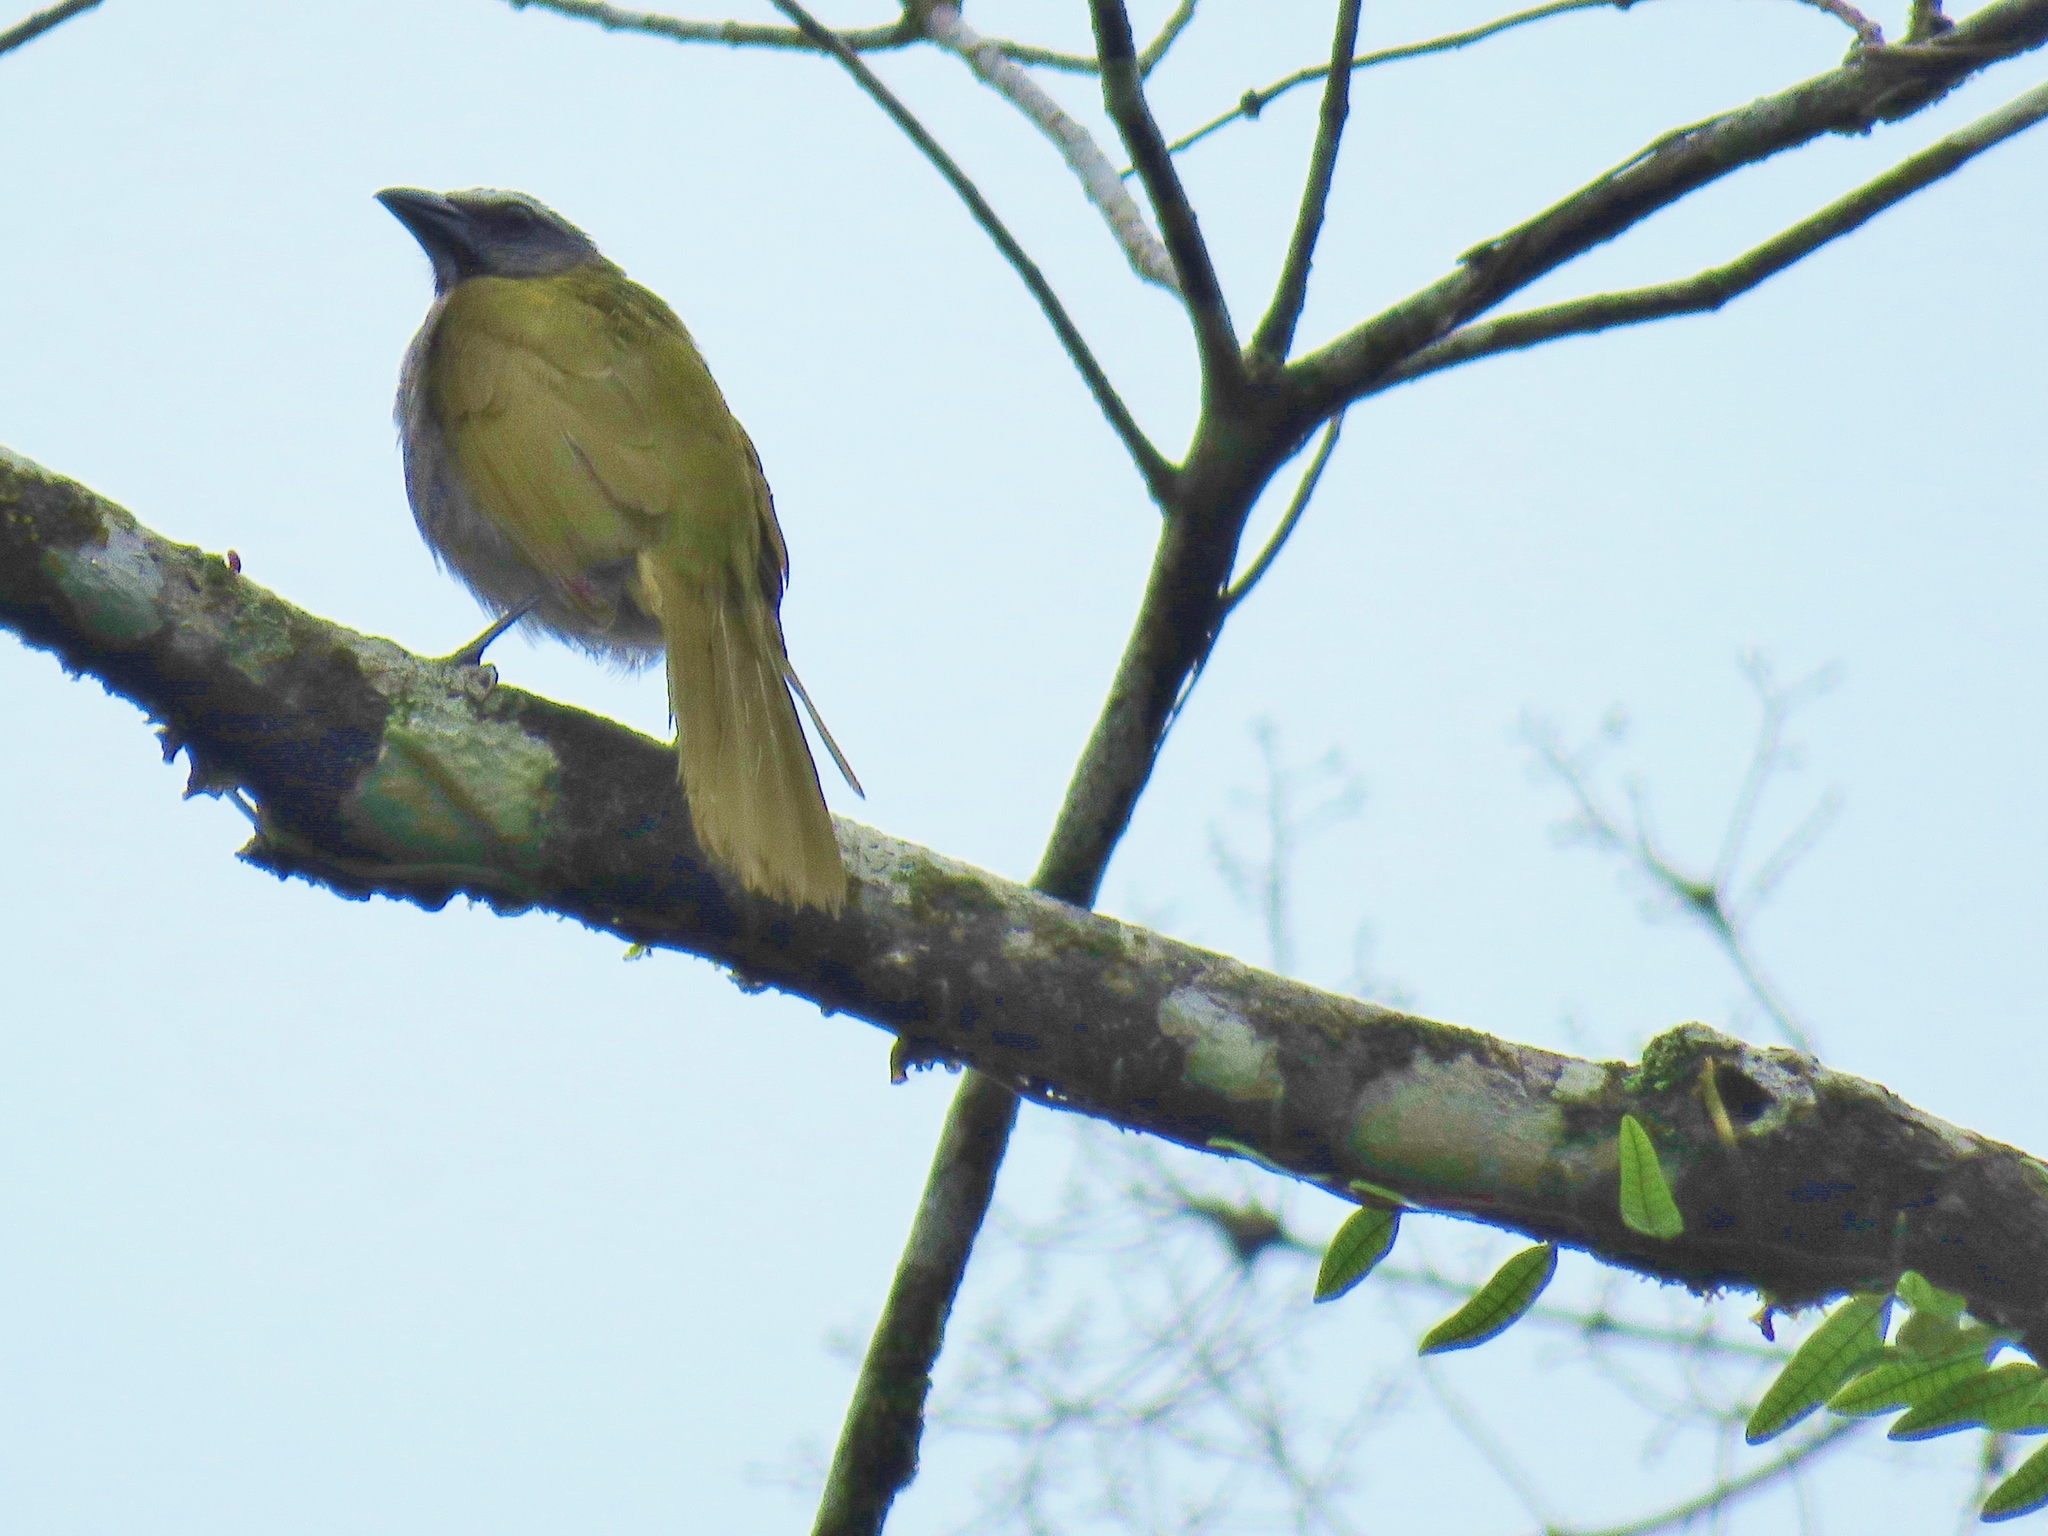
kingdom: Animalia
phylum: Chordata
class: Aves
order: Passeriformes
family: Thraupidae
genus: Saltator
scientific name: Saltator maximus
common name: Buff-throated saltator
